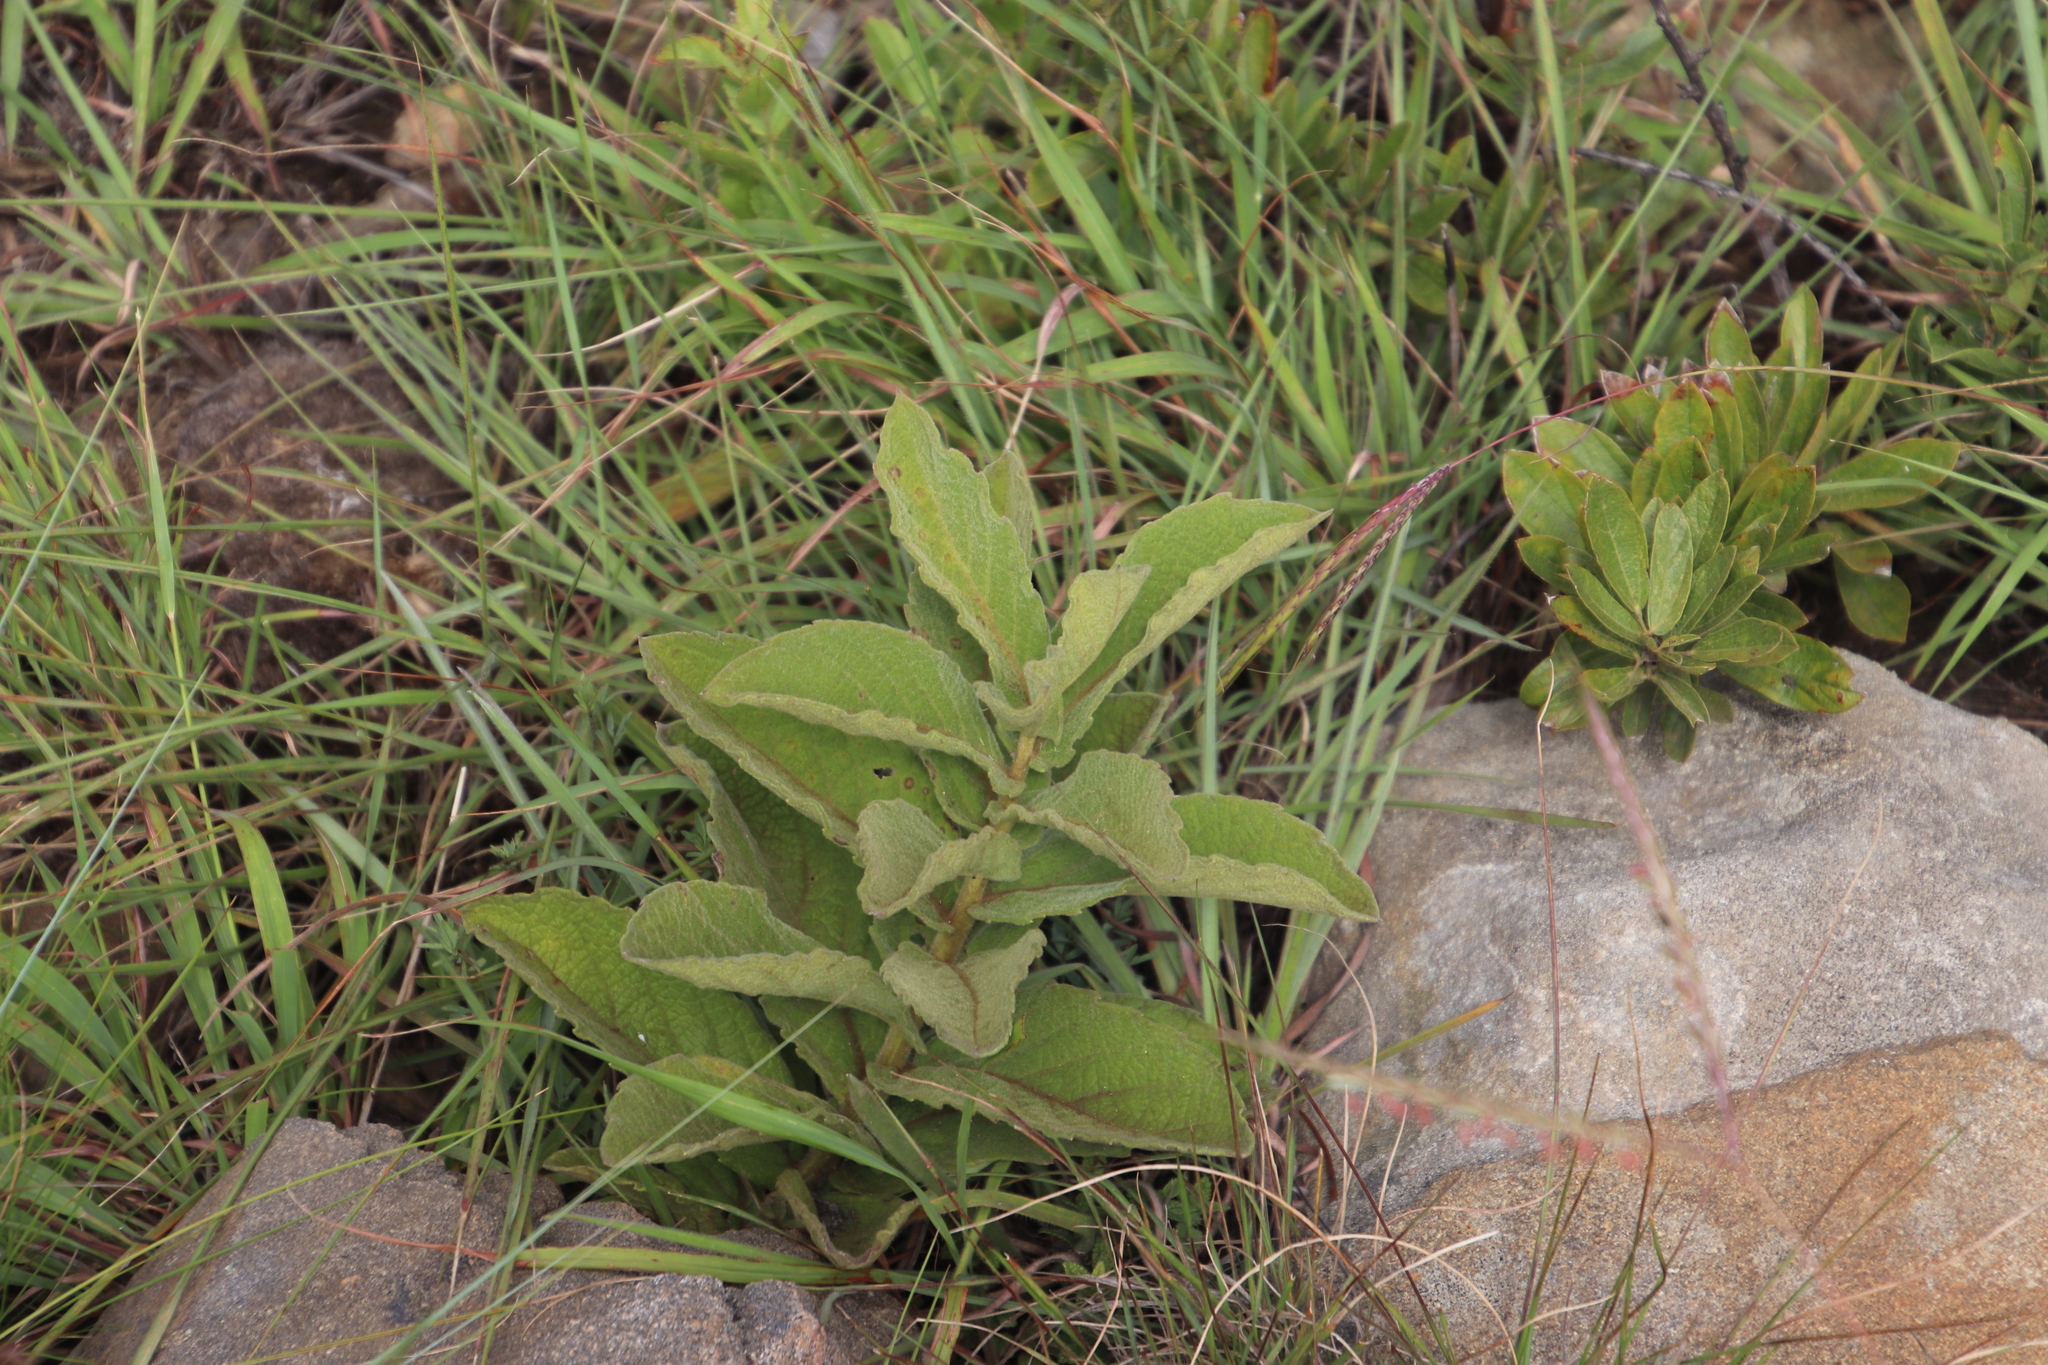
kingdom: Plantae
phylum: Tracheophyta
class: Magnoliopsida
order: Asterales
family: Asteraceae
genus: Hilliardiella
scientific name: Hilliardiella hirsuta
